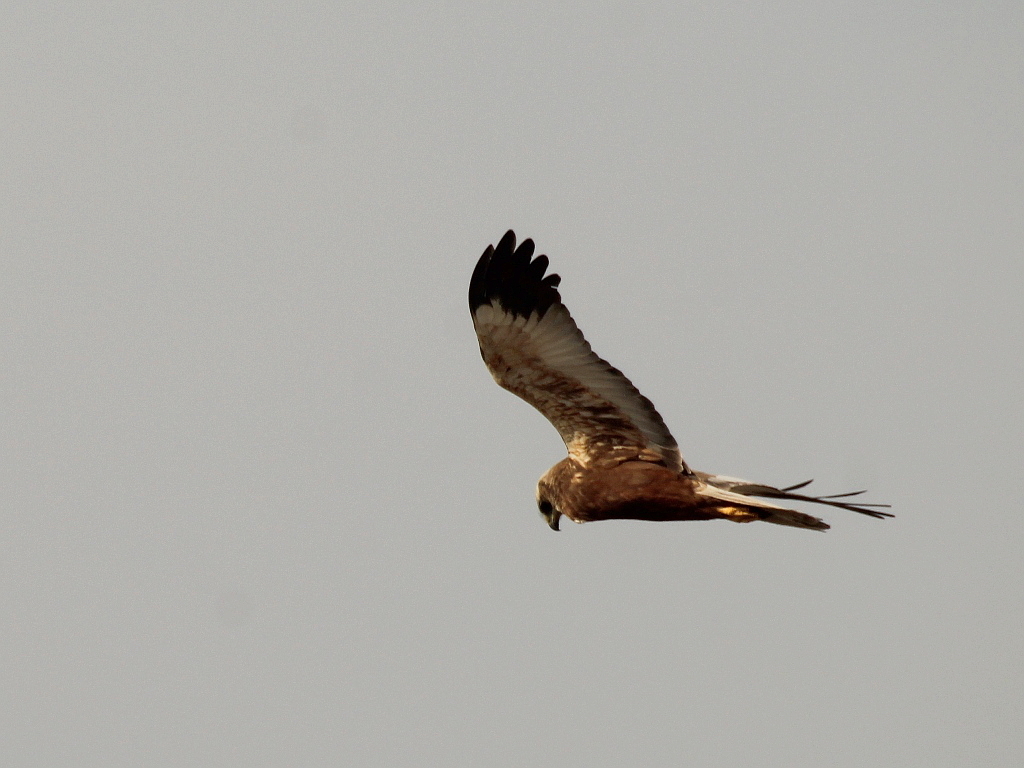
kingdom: Animalia
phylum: Chordata
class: Aves
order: Accipitriformes
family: Accipitridae
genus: Circus
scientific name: Circus aeruginosus
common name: Western marsh harrier
